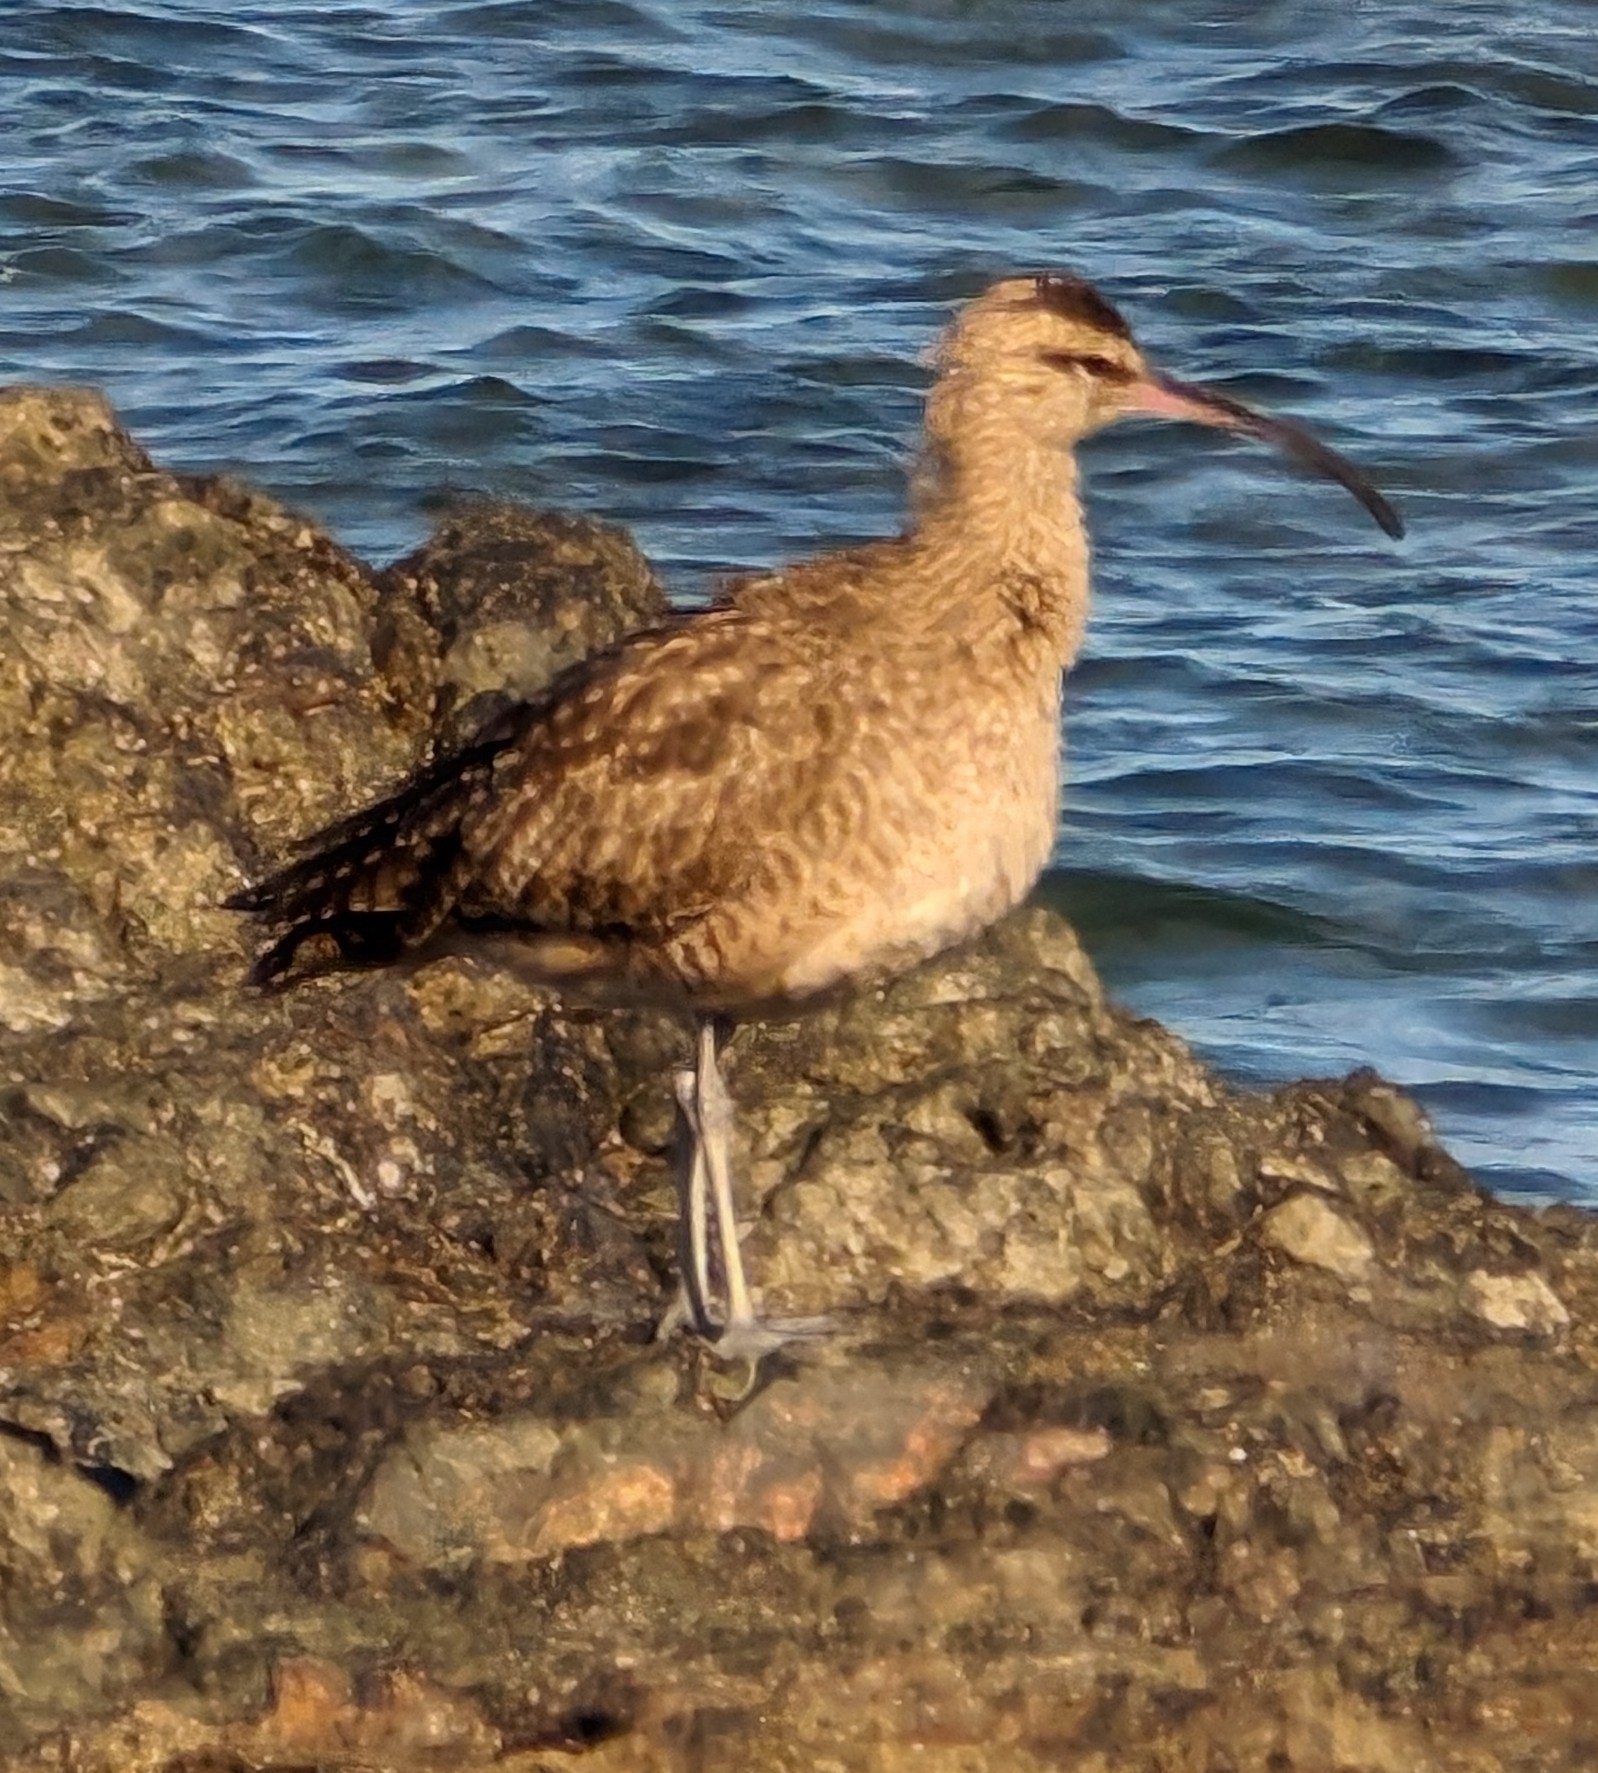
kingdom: Animalia
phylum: Chordata
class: Aves
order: Charadriiformes
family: Scolopacidae
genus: Numenius
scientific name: Numenius phaeopus
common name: Whimbrel
